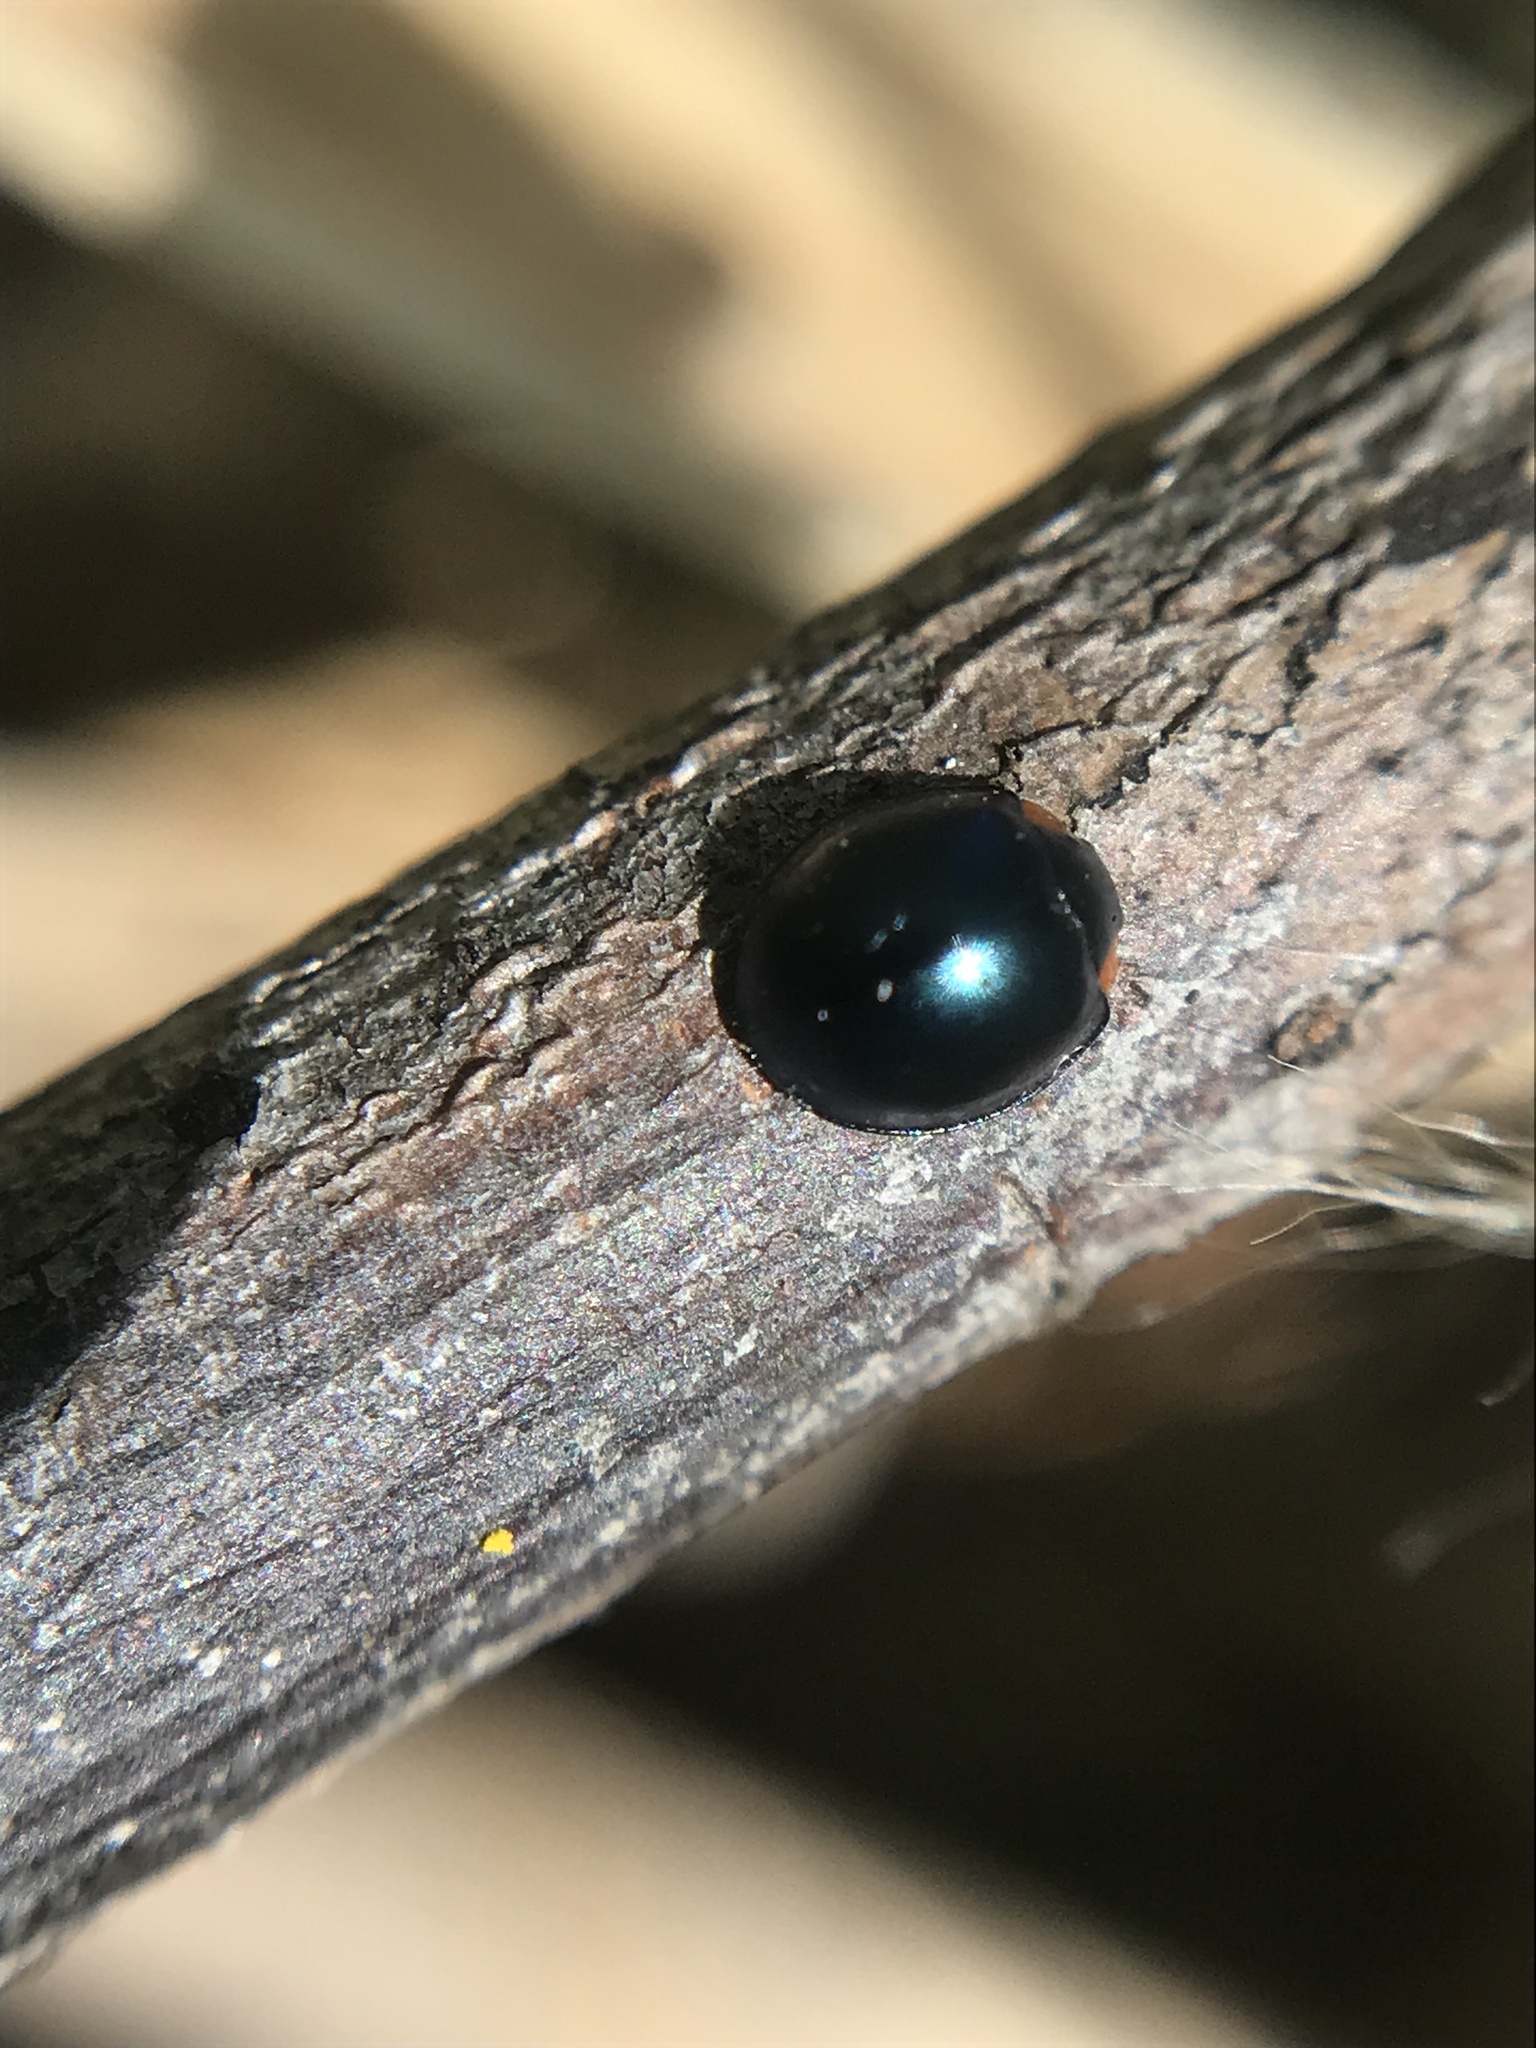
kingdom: Animalia
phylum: Arthropoda
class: Insecta
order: Coleoptera
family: Coccinellidae
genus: Curinus
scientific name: Curinus coeruleus
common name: Ladybird beetle
